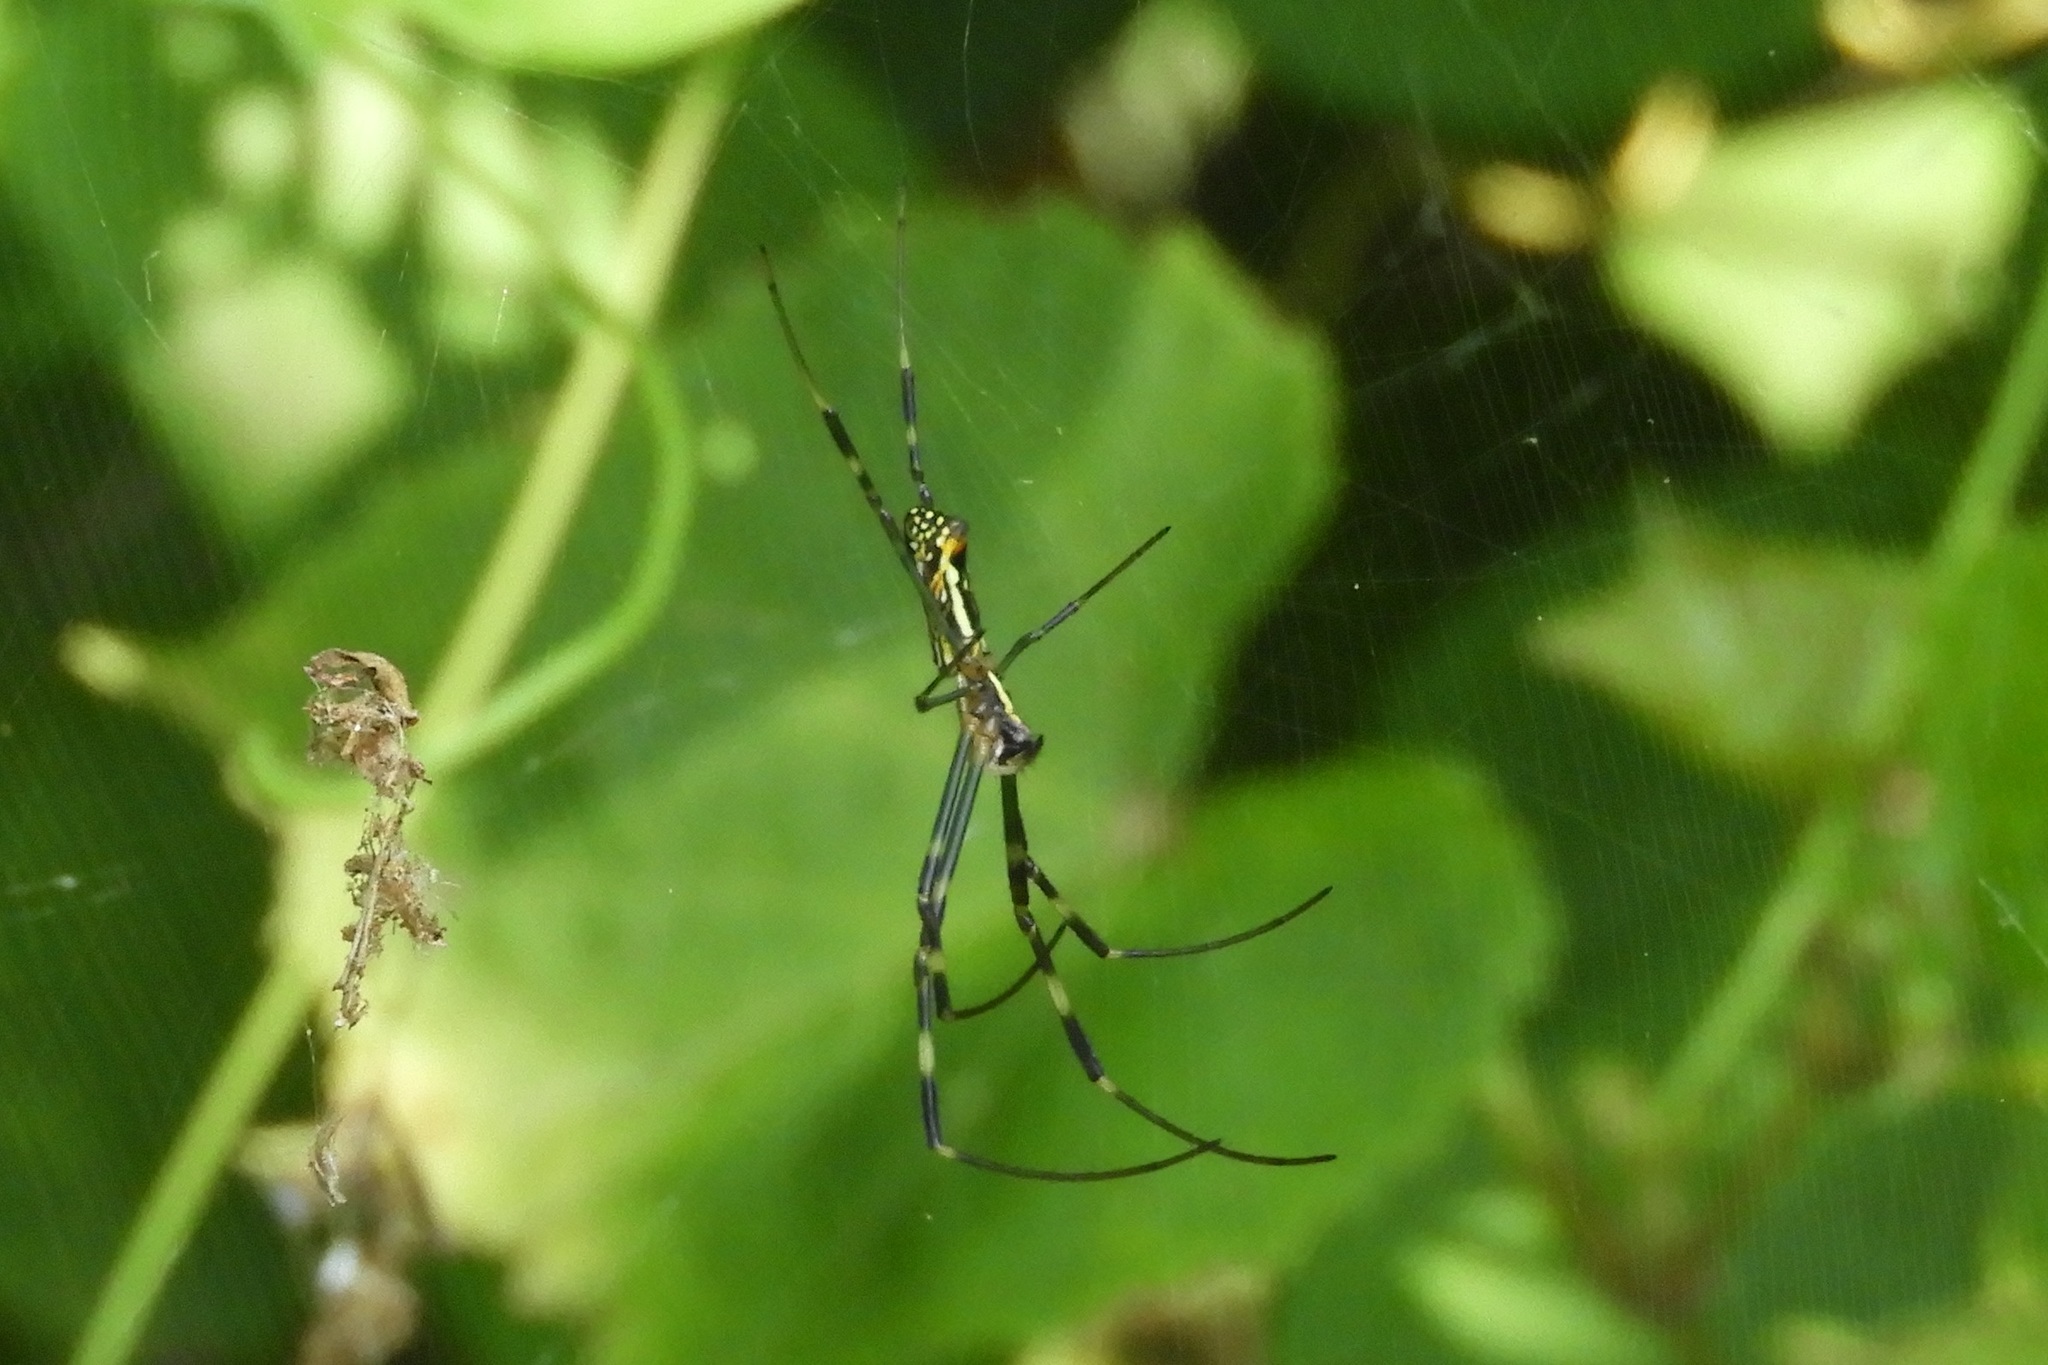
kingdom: Animalia
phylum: Arthropoda
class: Arachnida
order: Araneae
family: Araneidae
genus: Trichonephila
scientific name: Trichonephila clavata
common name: Jorō spider
